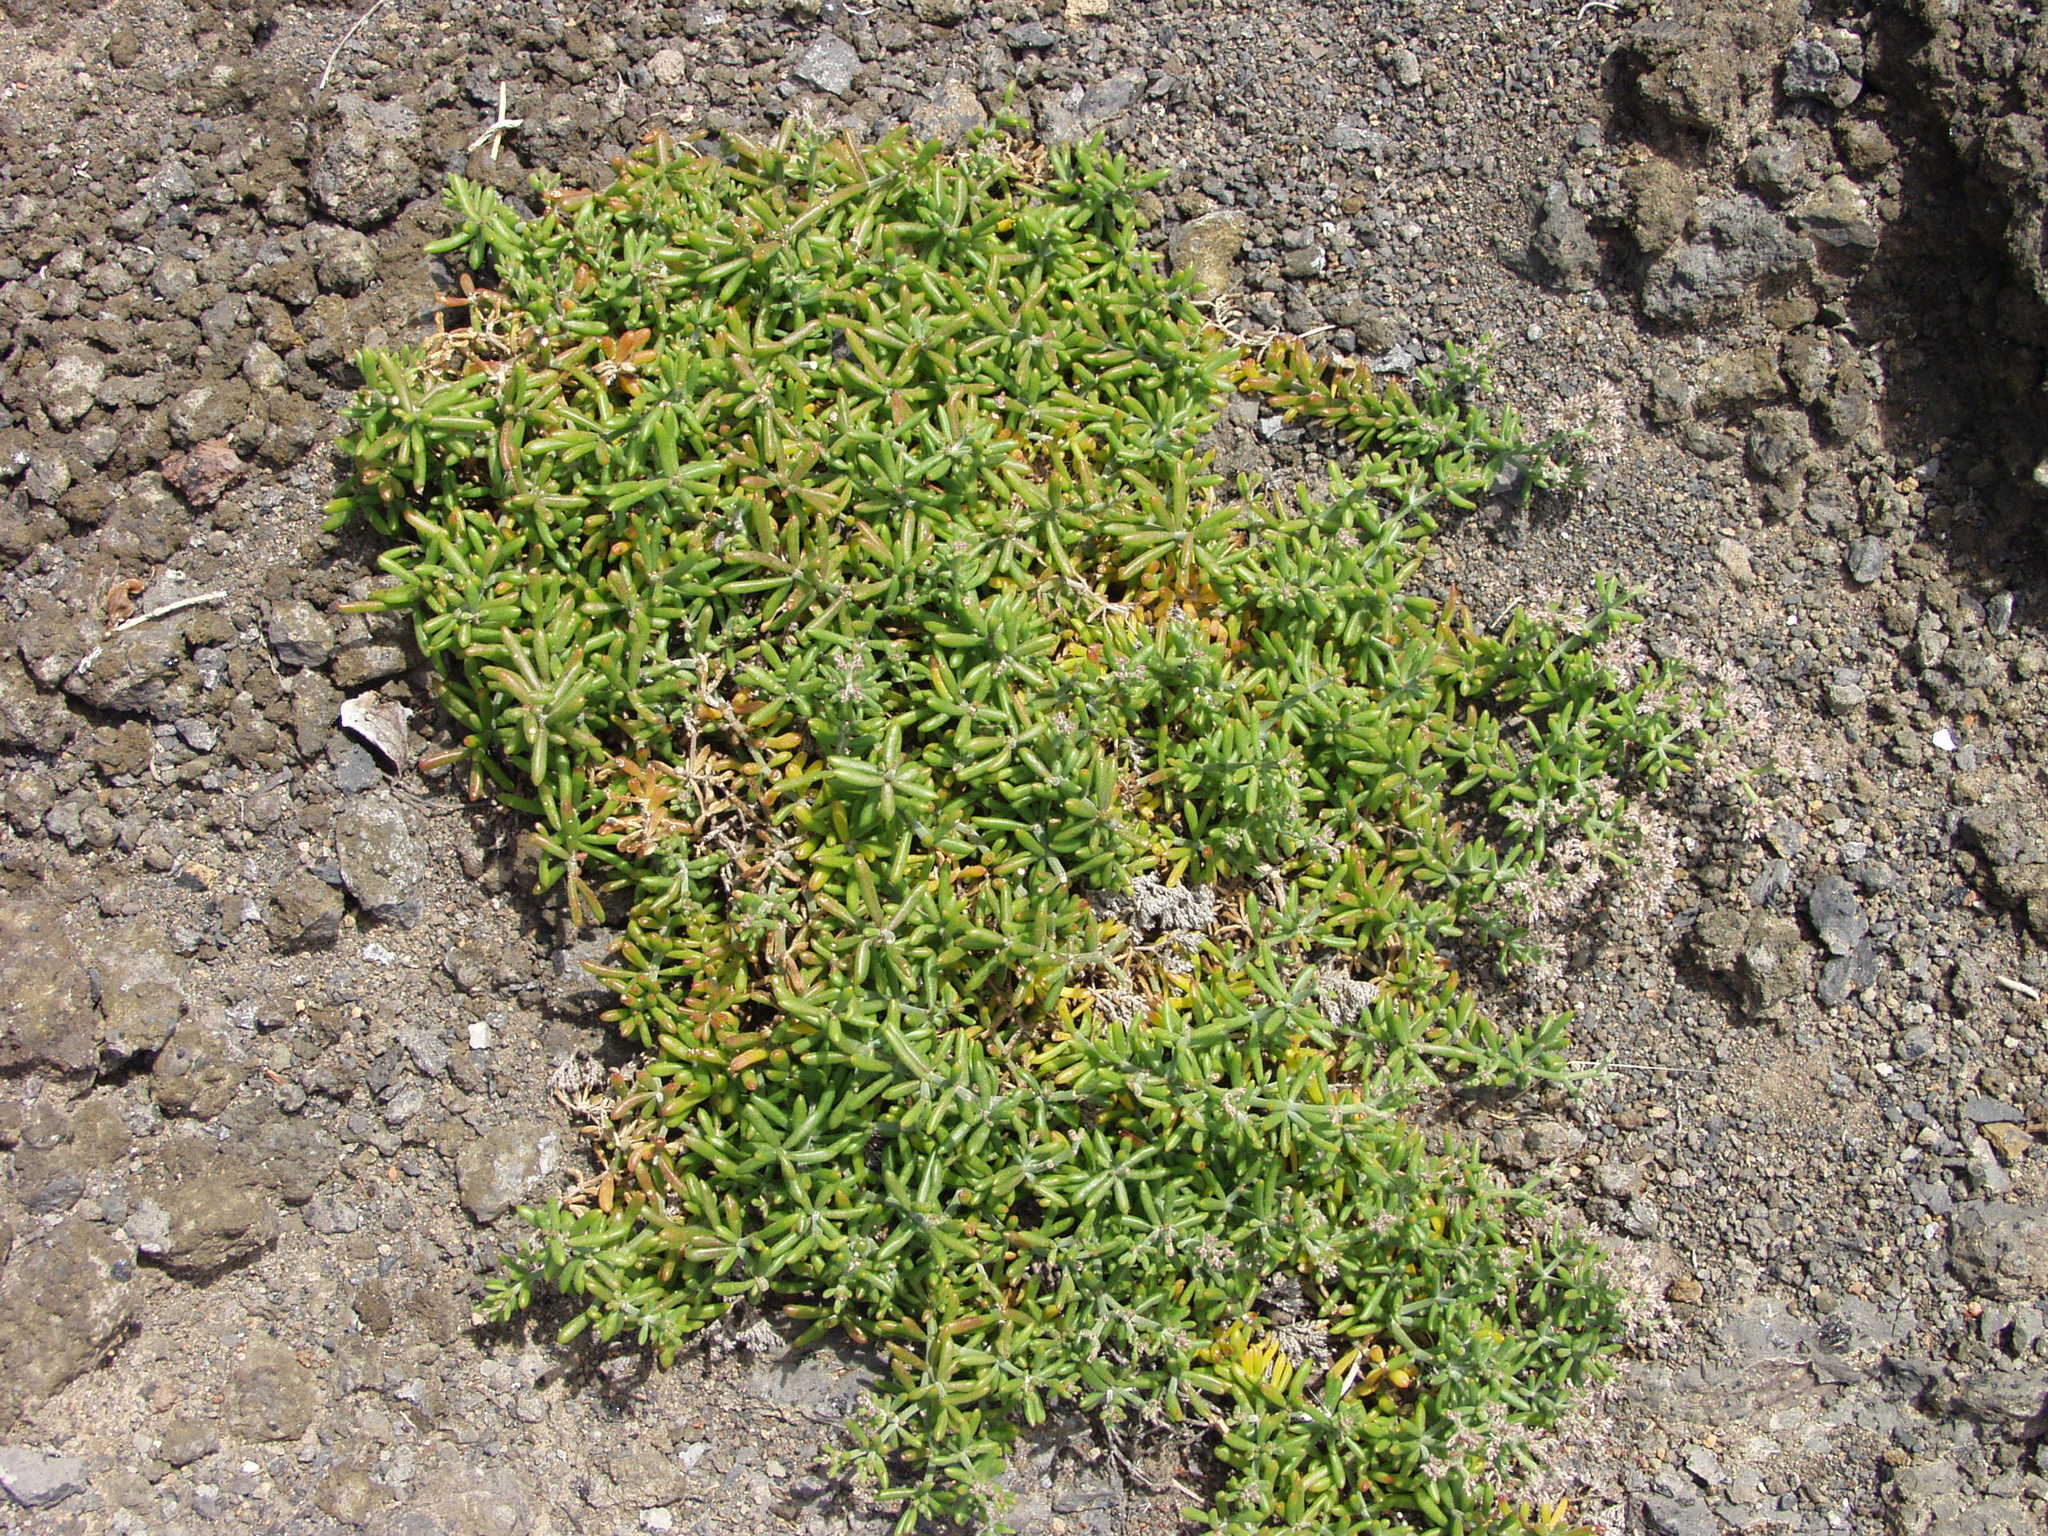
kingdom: Plantae
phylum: Tracheophyta
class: Magnoliopsida
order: Caryophyllales
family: Aizoaceae
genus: Mesembryanthemum
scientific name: Mesembryanthemum nodiflorum
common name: Slenderleaf iceplant
